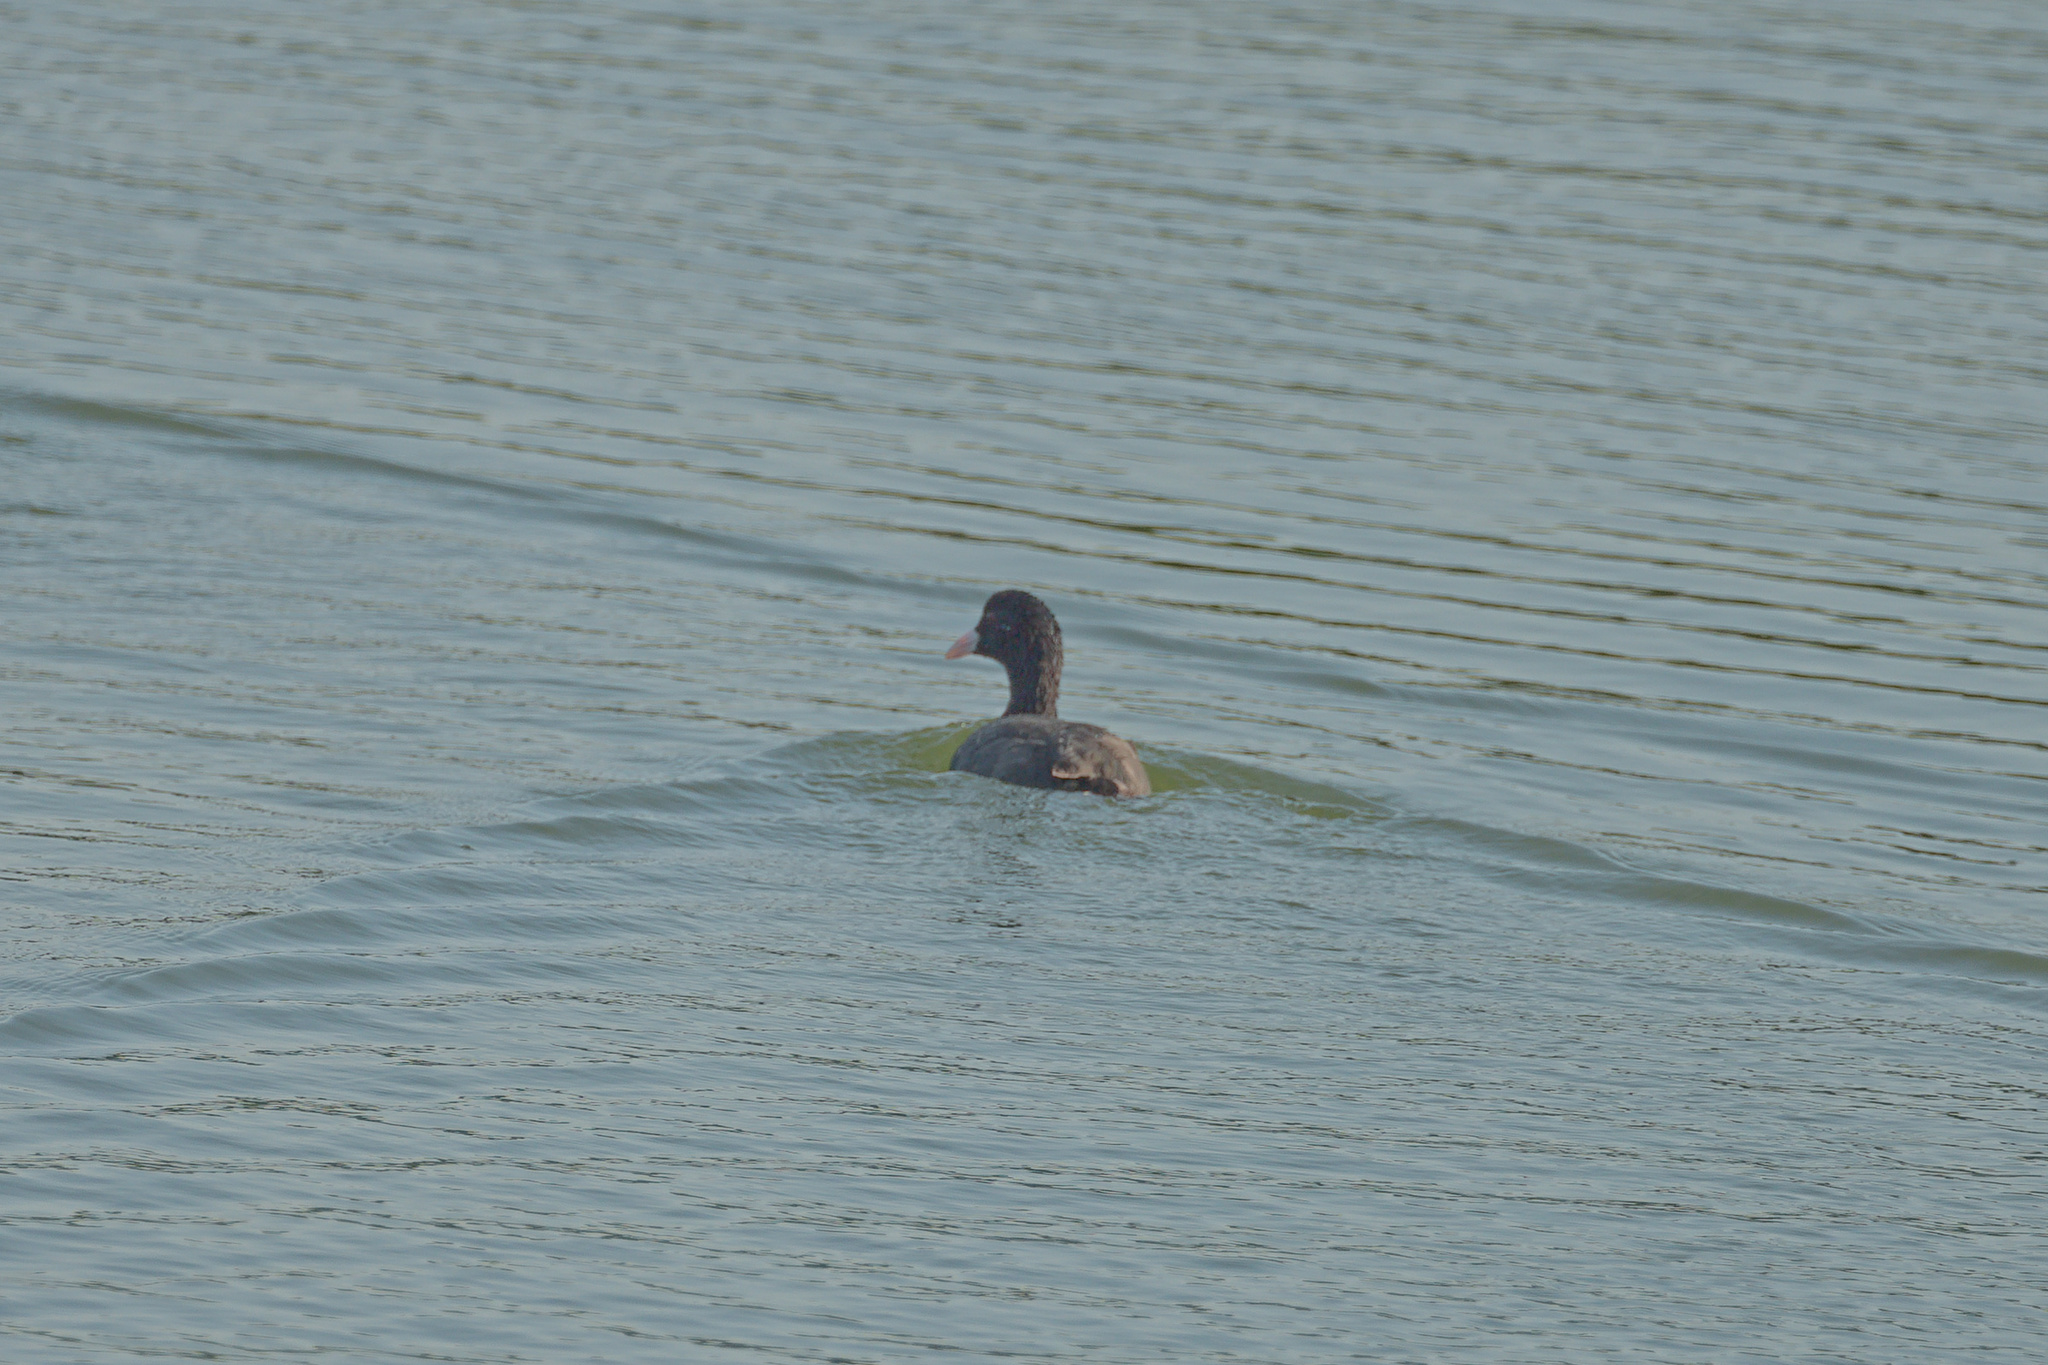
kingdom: Animalia
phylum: Chordata
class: Aves
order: Gruiformes
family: Rallidae
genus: Fulica
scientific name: Fulica atra
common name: Eurasian coot
